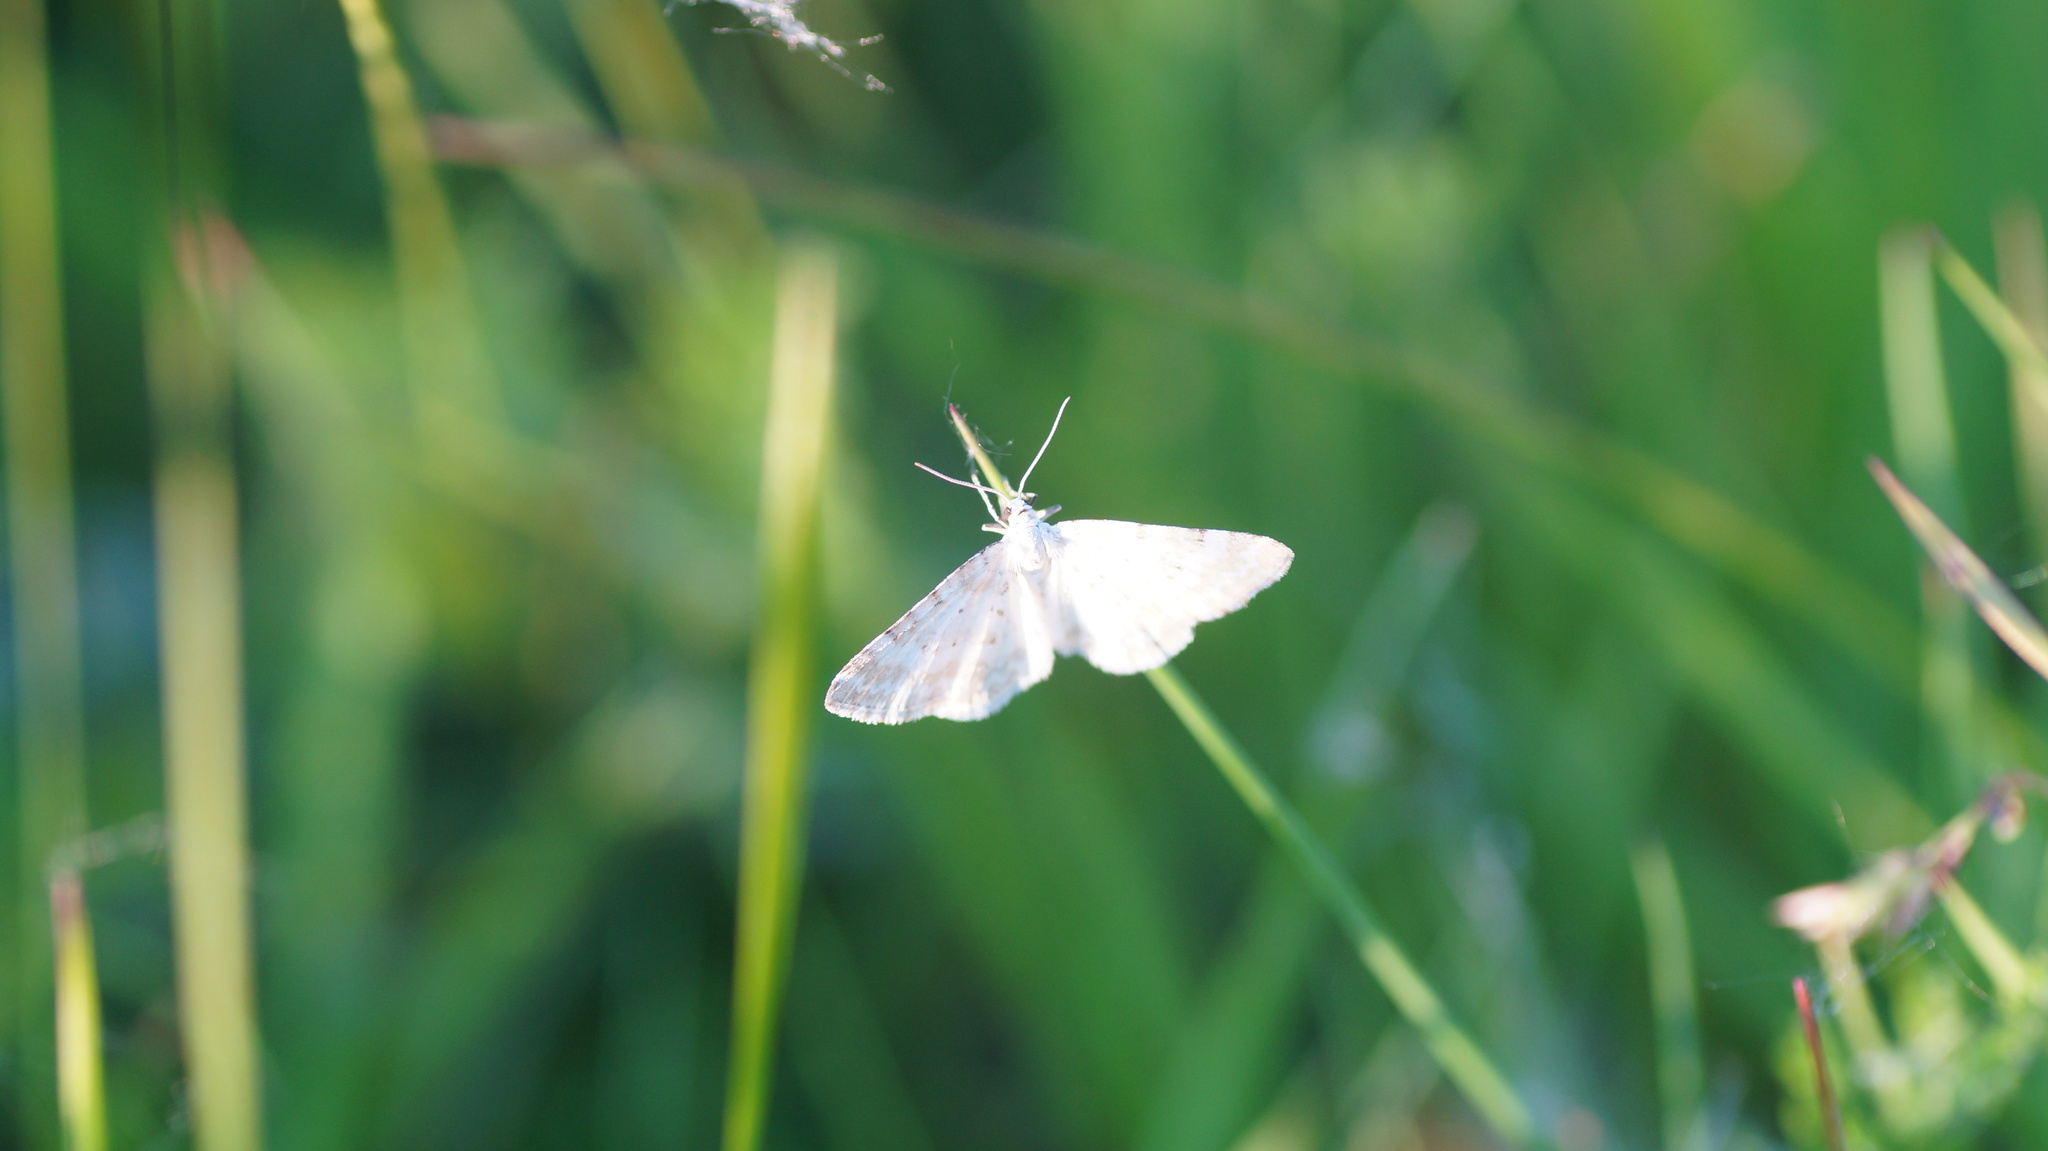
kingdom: Animalia
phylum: Arthropoda
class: Insecta
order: Lepidoptera
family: Geometridae
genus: Perizoma
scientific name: Perizoma albulata
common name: Grass rivulet
